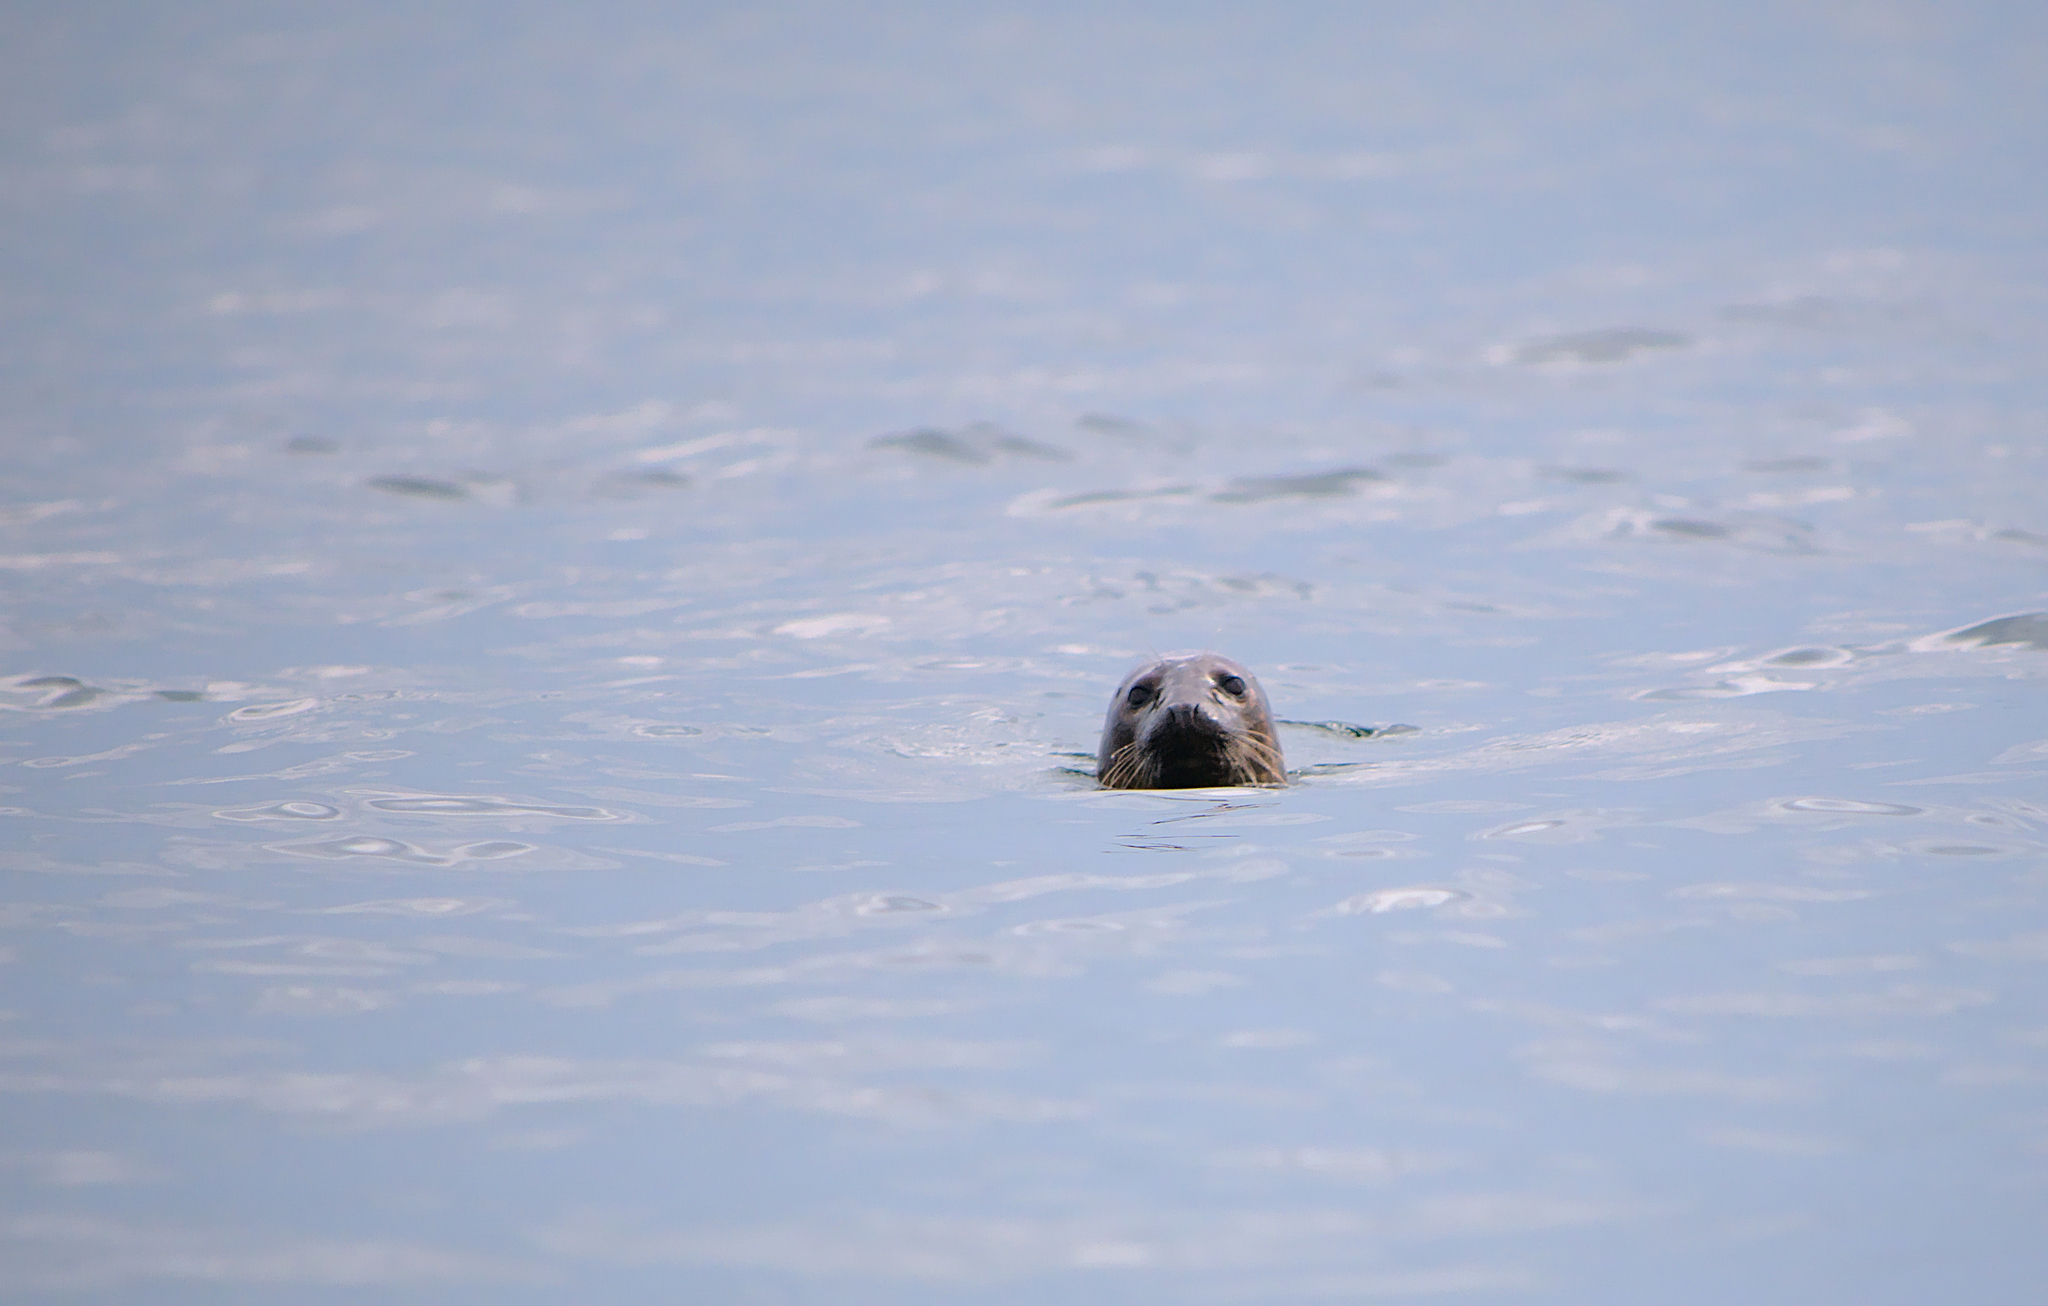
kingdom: Animalia
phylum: Chordata
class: Mammalia
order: Carnivora
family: Phocidae
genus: Halichoerus
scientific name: Halichoerus grypus
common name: Grey seal
